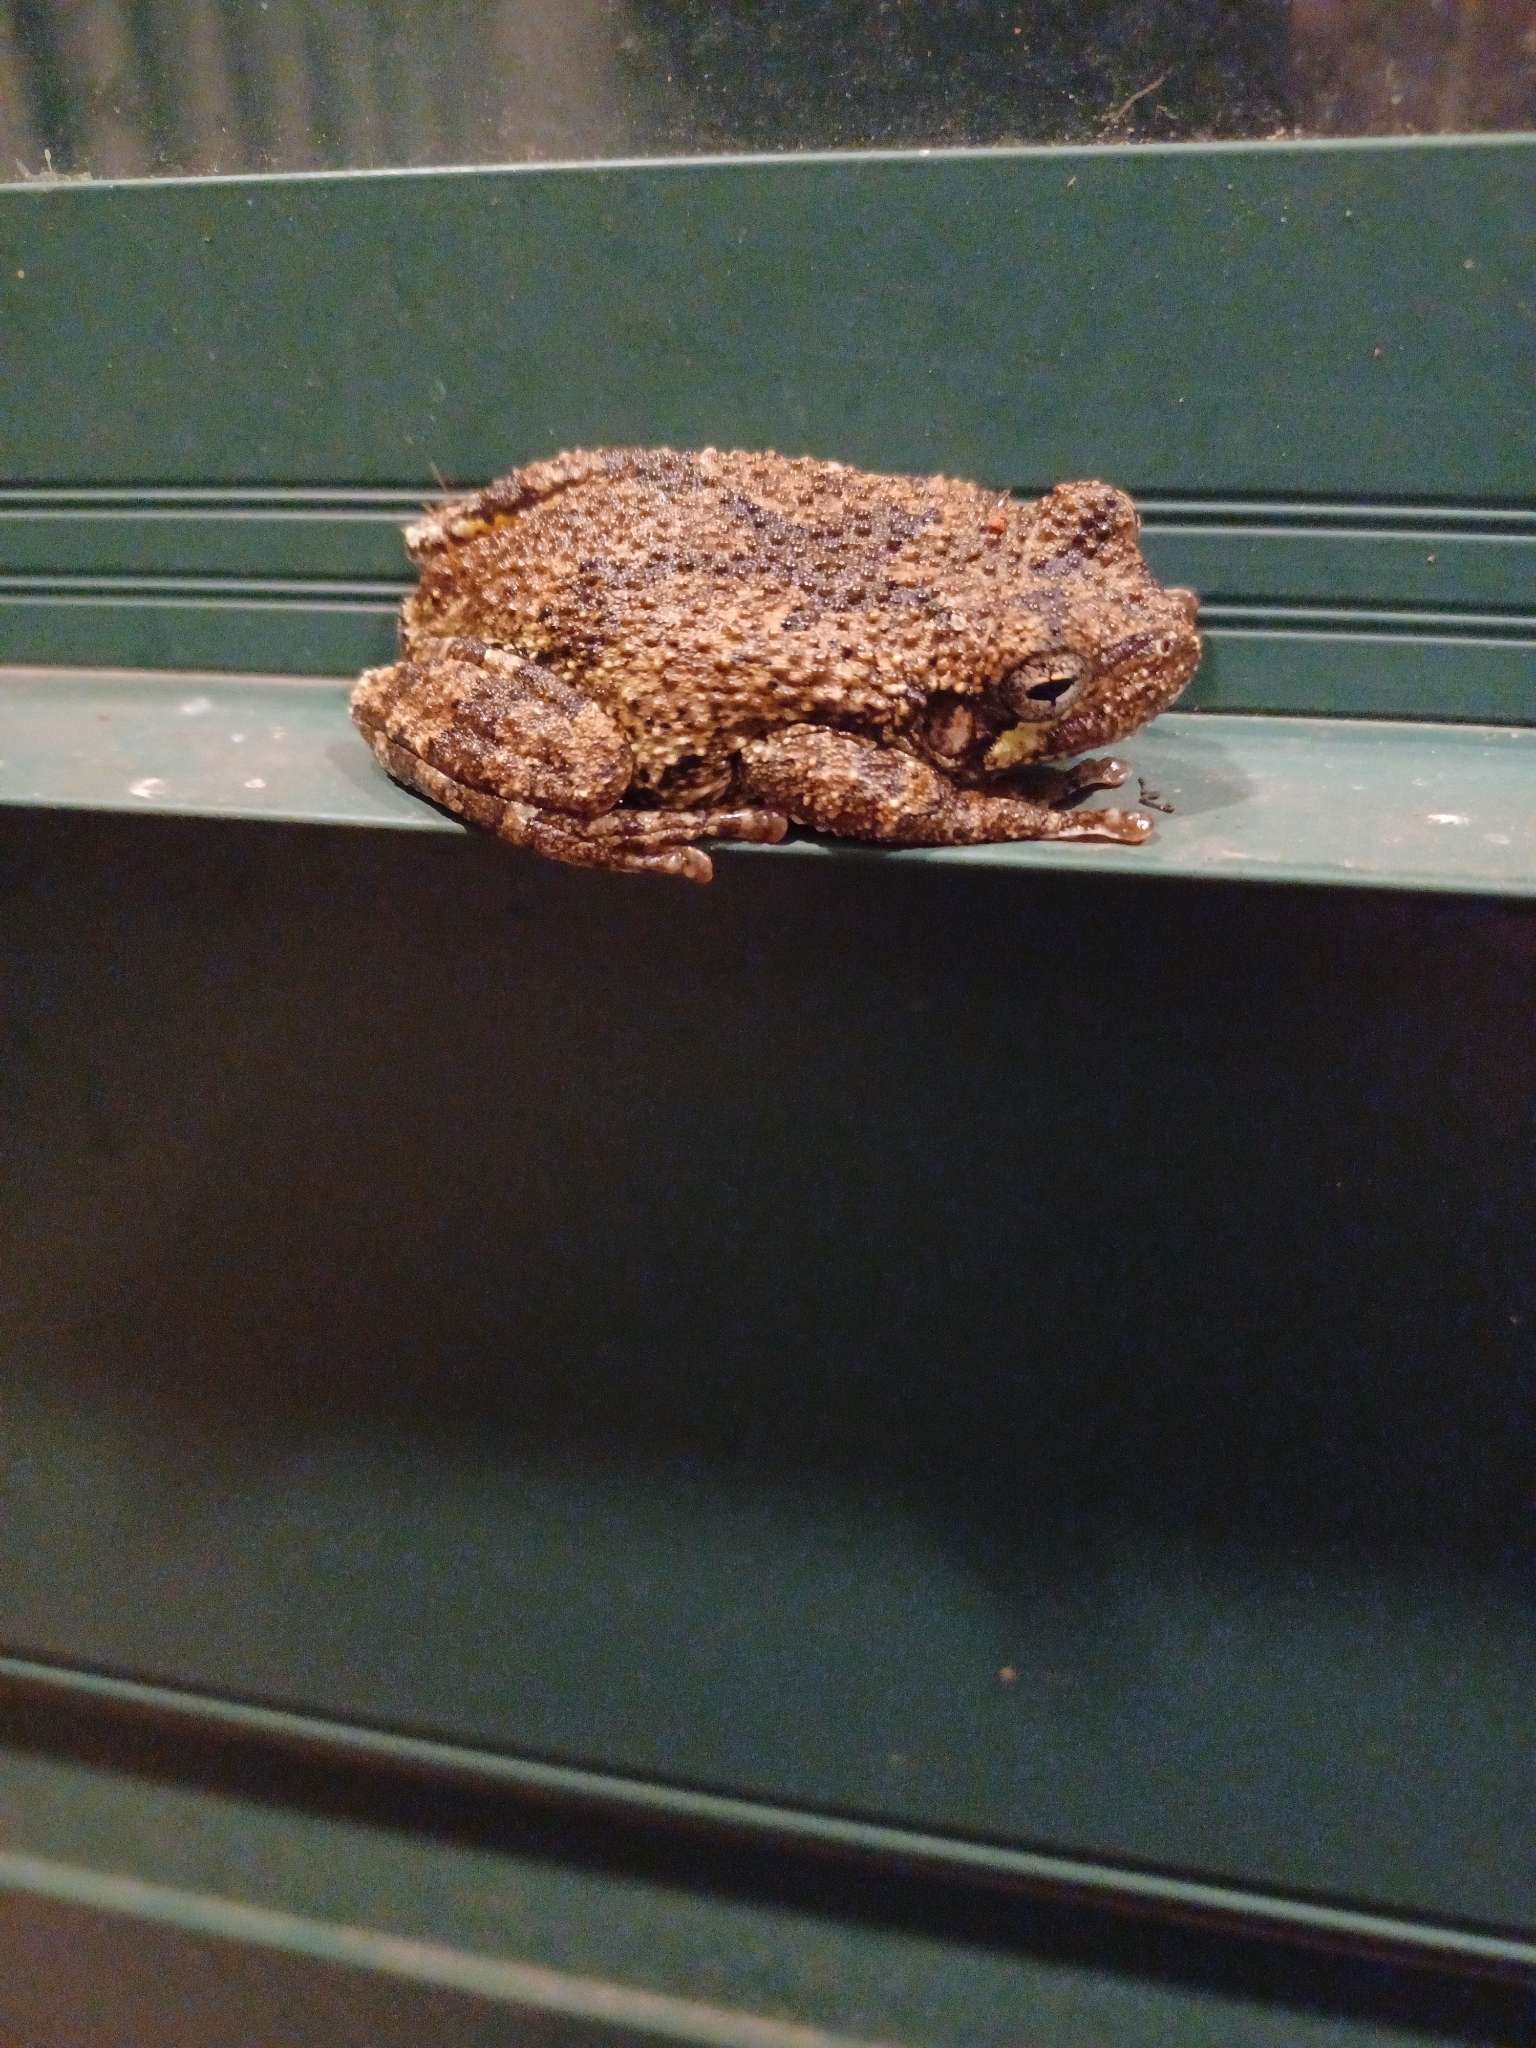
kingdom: Animalia
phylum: Chordata
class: Amphibia
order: Anura
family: Hylidae
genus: Dryophytes
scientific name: Dryophytes chrysoscelis
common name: Cope's gray treefrog
